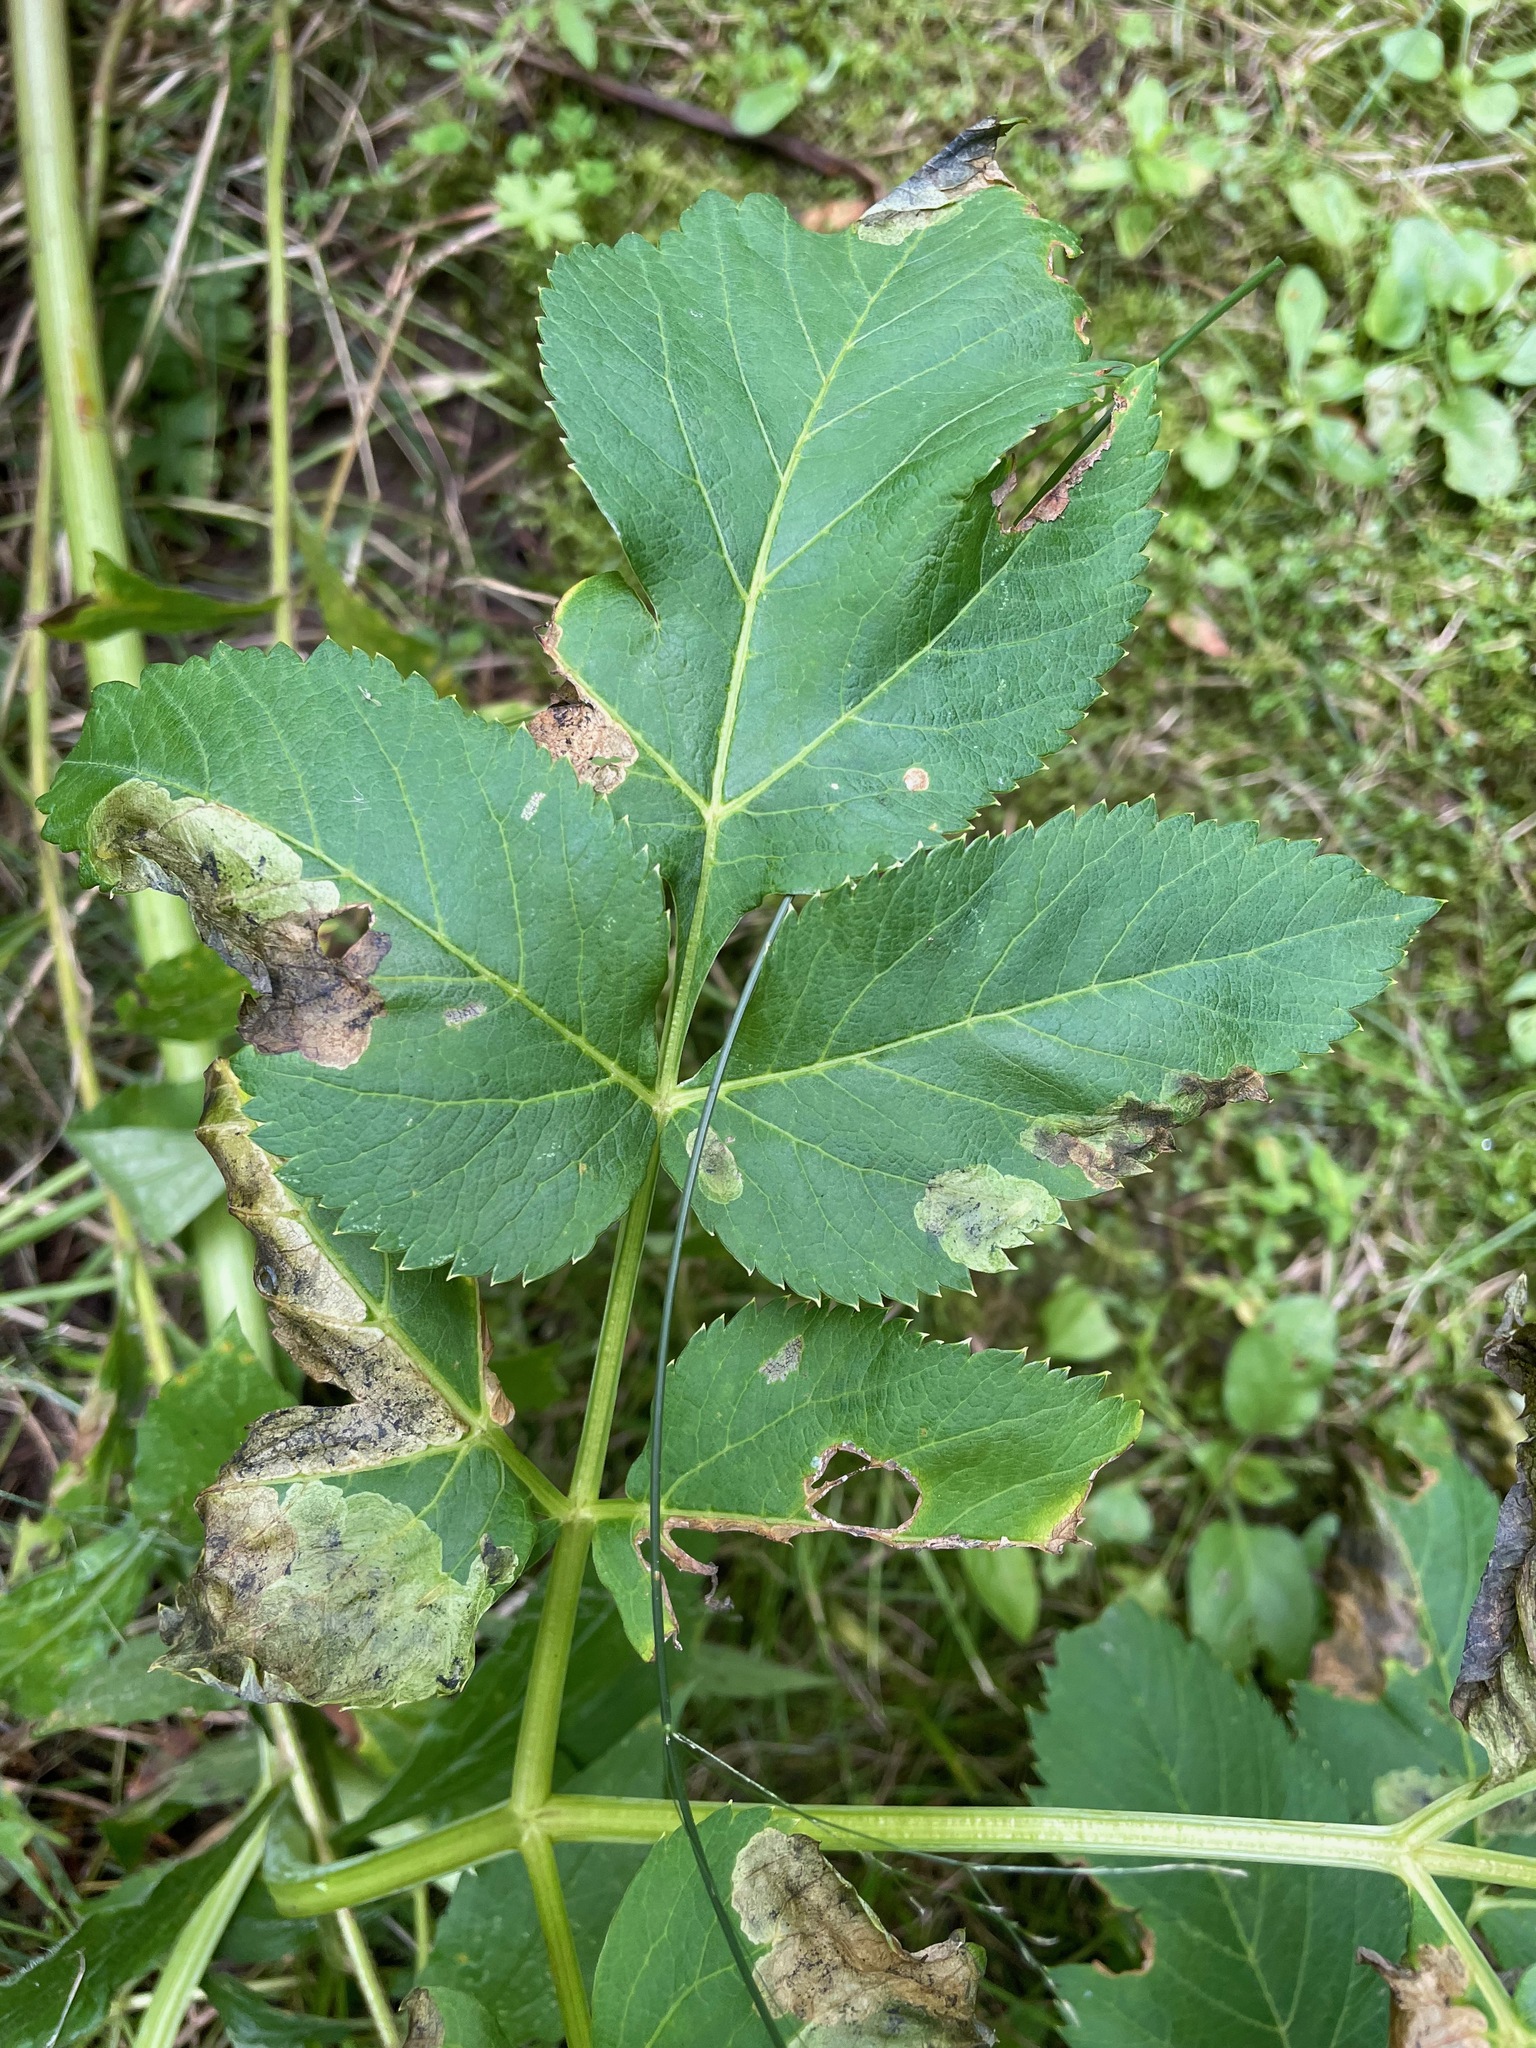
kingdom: Plantae
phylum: Tracheophyta
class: Magnoliopsida
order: Apiales
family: Apiaceae
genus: Angelica
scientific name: Angelica atropurpurea
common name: Great angelica
